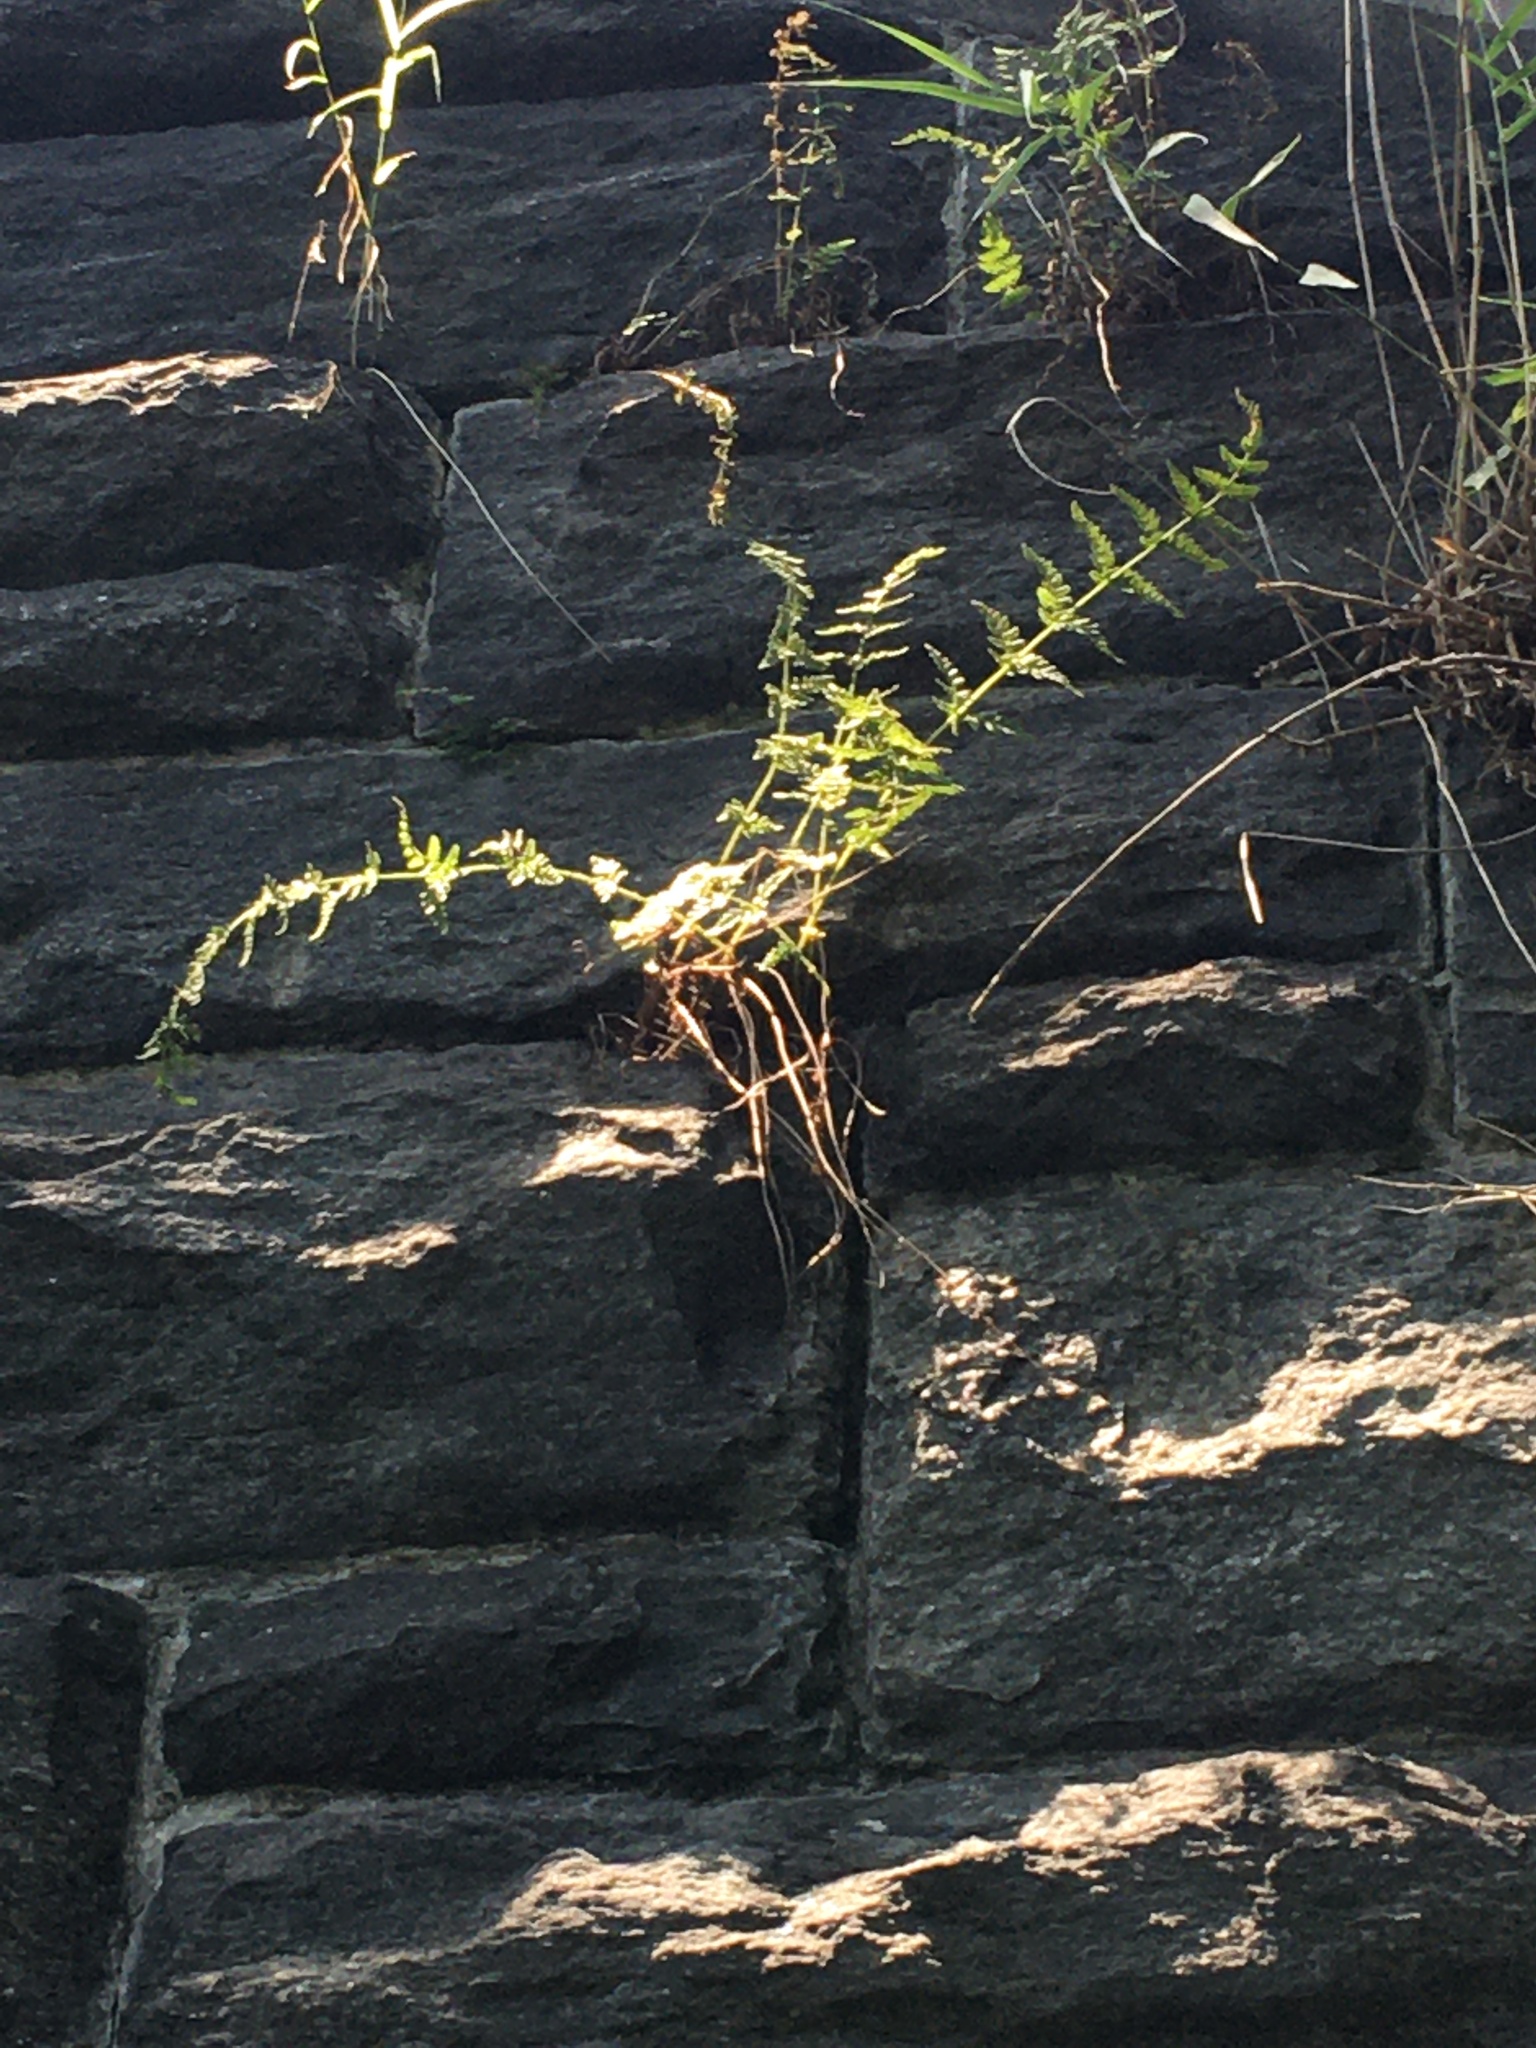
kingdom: Plantae
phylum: Tracheophyta
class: Polypodiopsida
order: Polypodiales
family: Woodsiaceae
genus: Physematium
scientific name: Physematium obtusum
